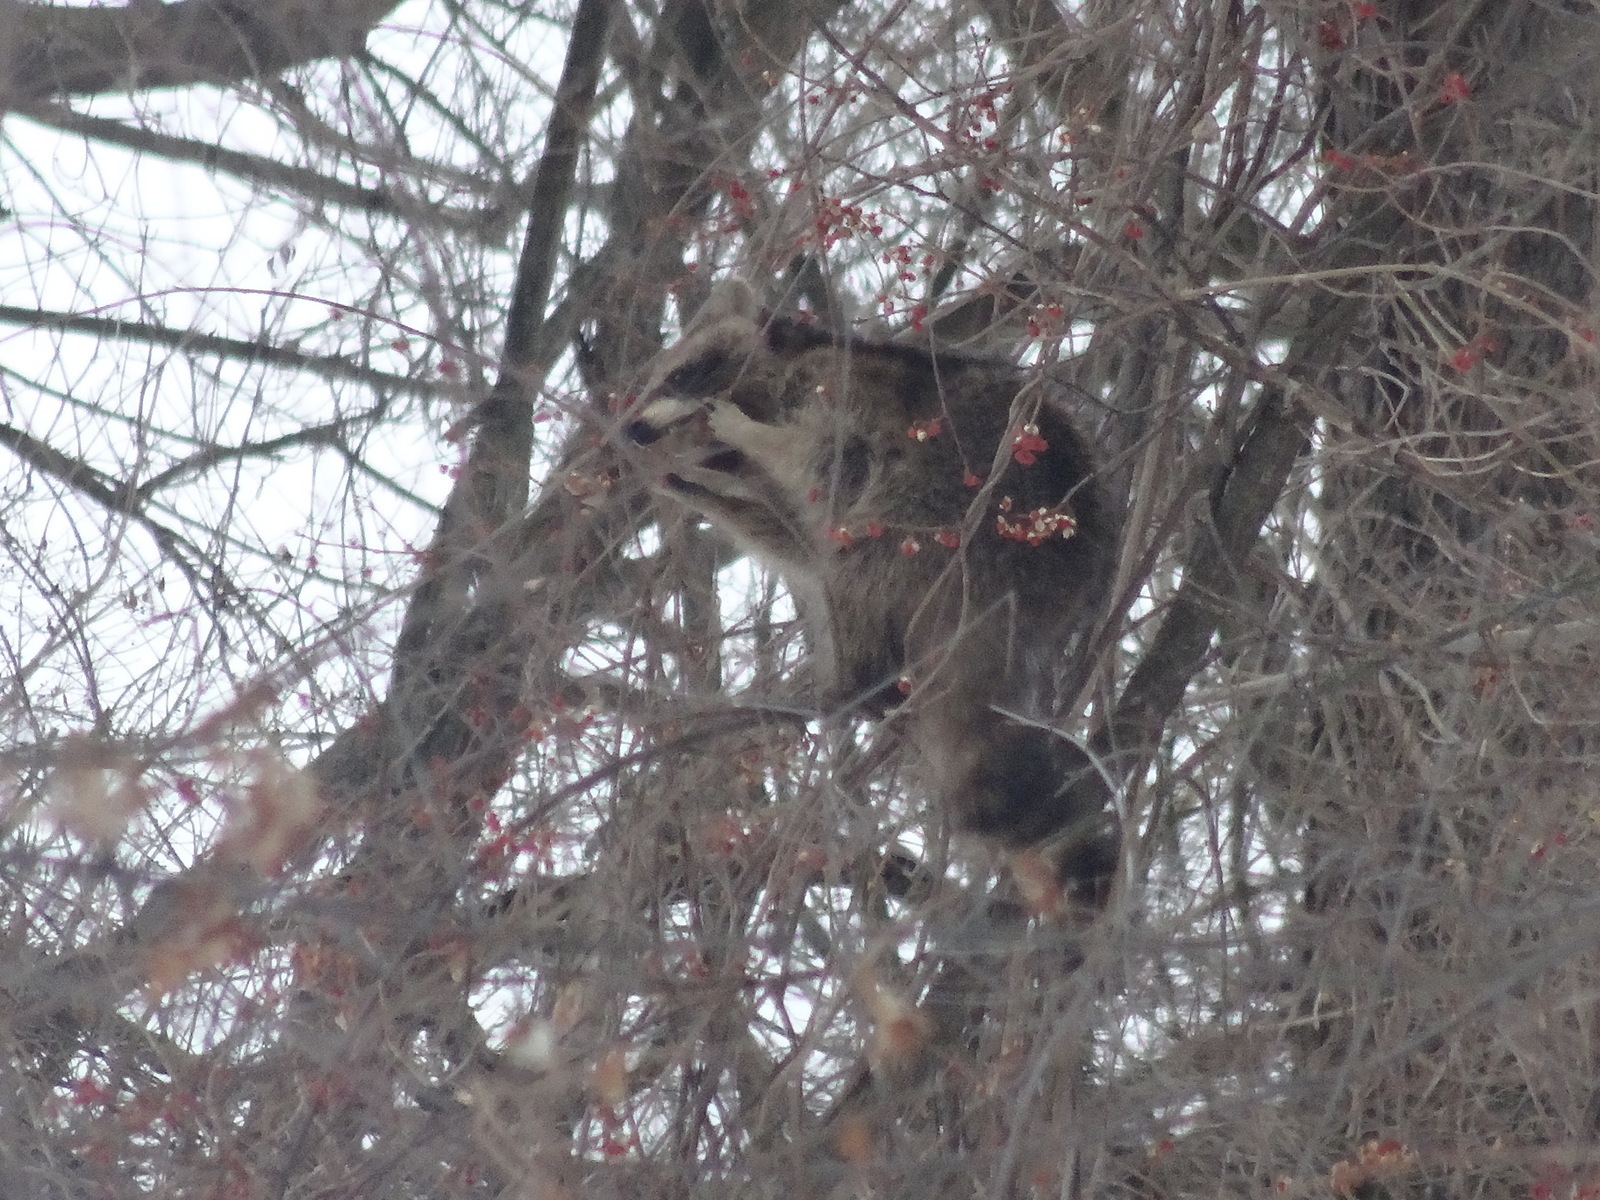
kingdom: Animalia
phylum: Chordata
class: Mammalia
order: Carnivora
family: Procyonidae
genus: Procyon
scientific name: Procyon lotor
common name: Raccoon
